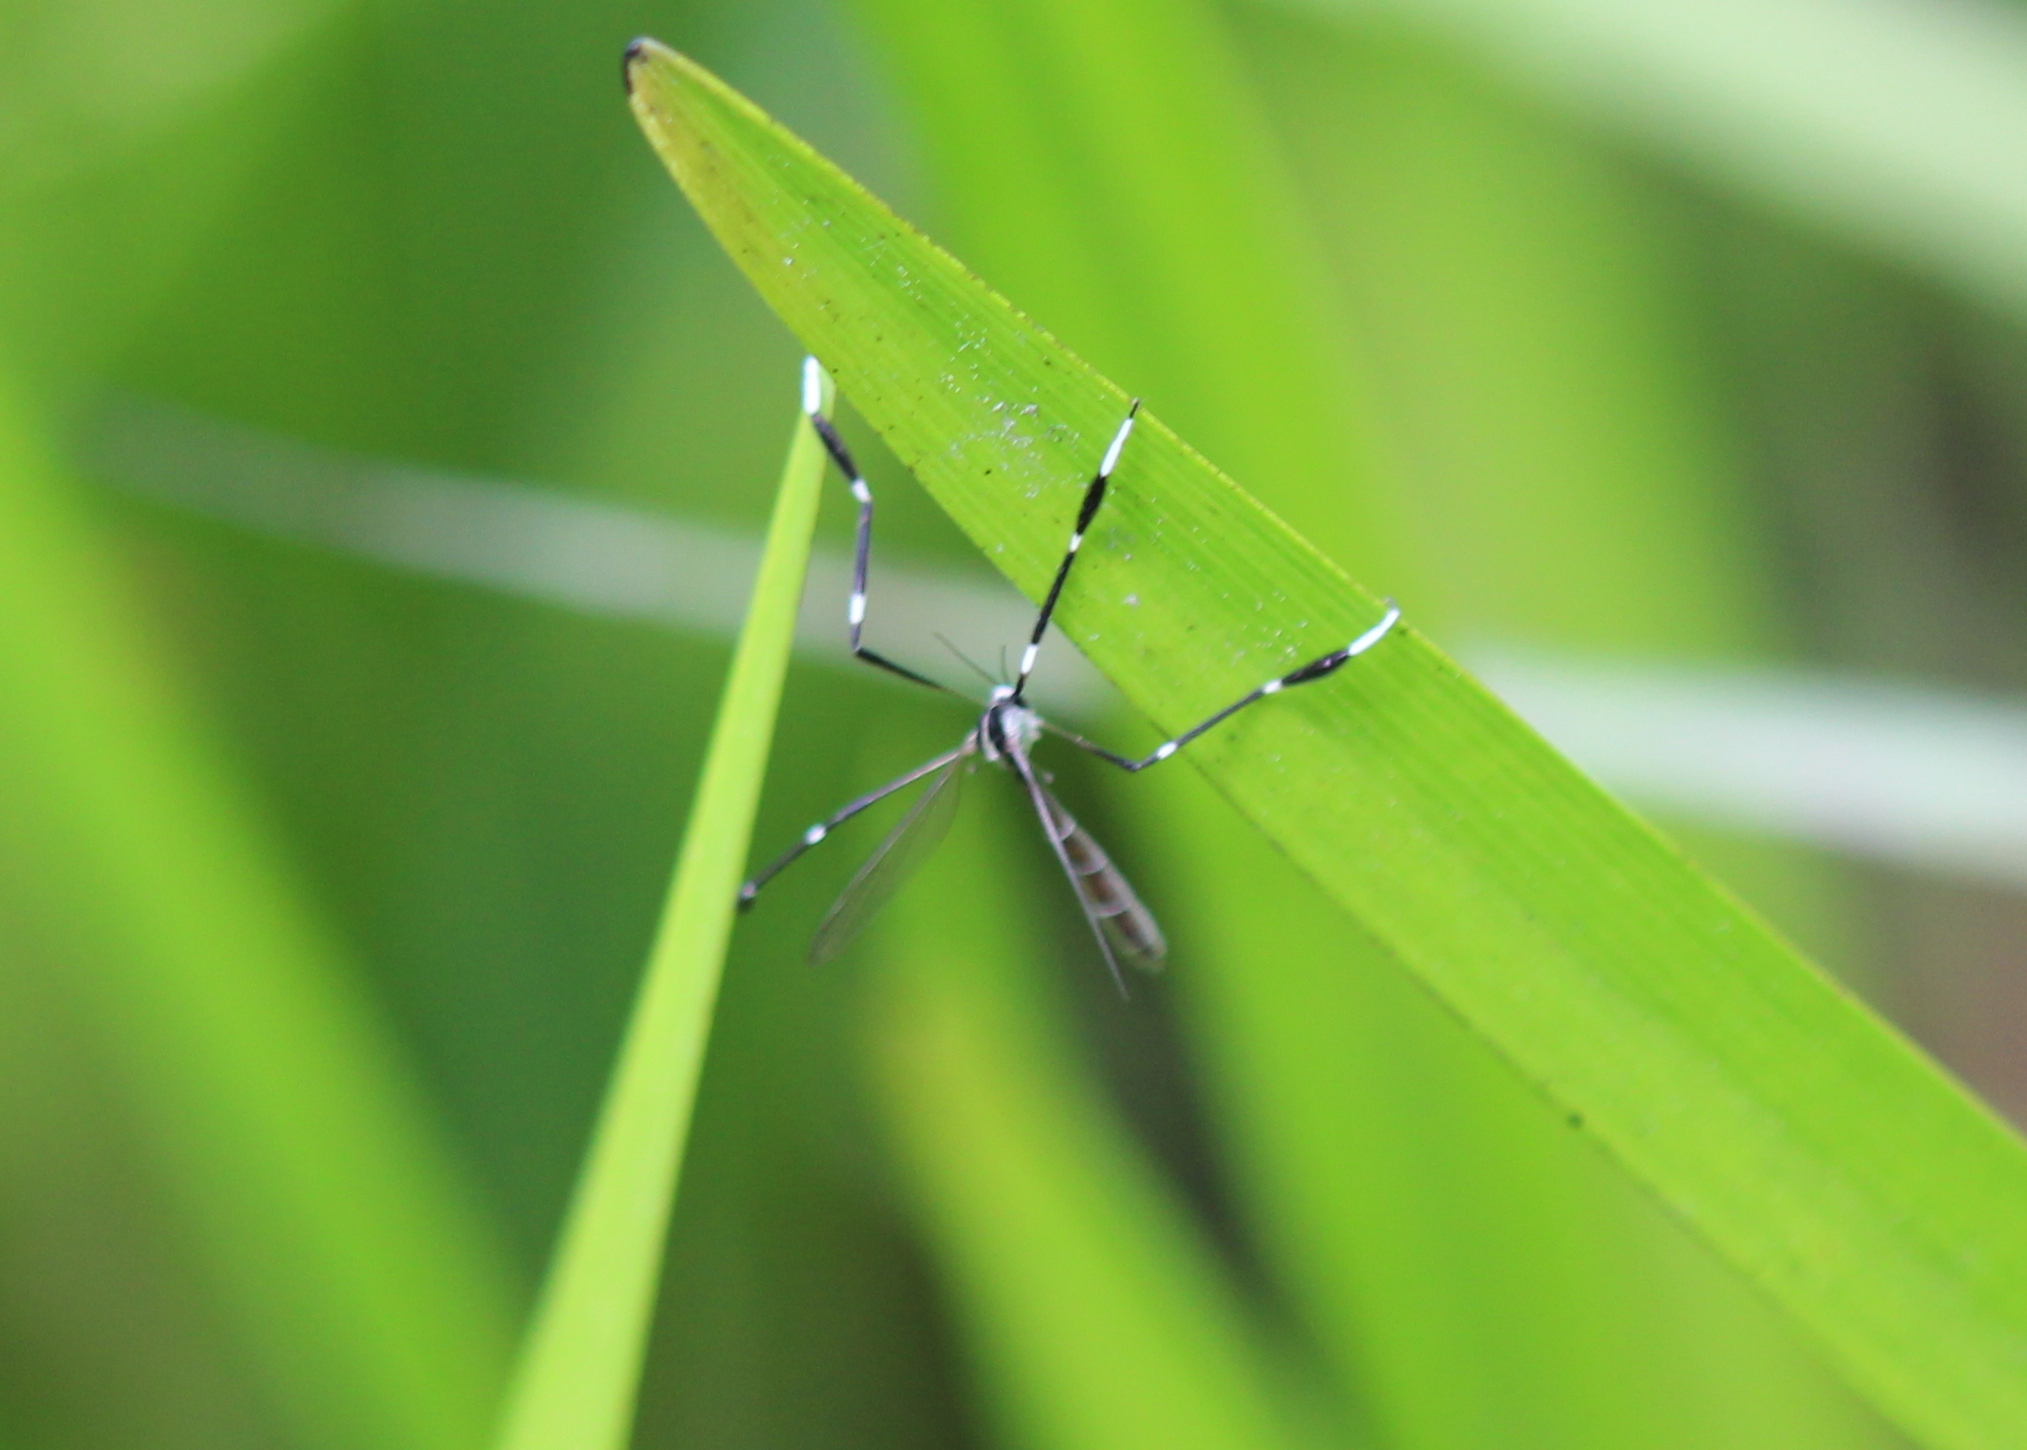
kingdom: Animalia
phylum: Arthropoda
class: Insecta
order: Diptera
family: Ptychopteridae
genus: Bittacomorpha
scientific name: Bittacomorpha clavipes
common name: Eastern phantom crane fly
